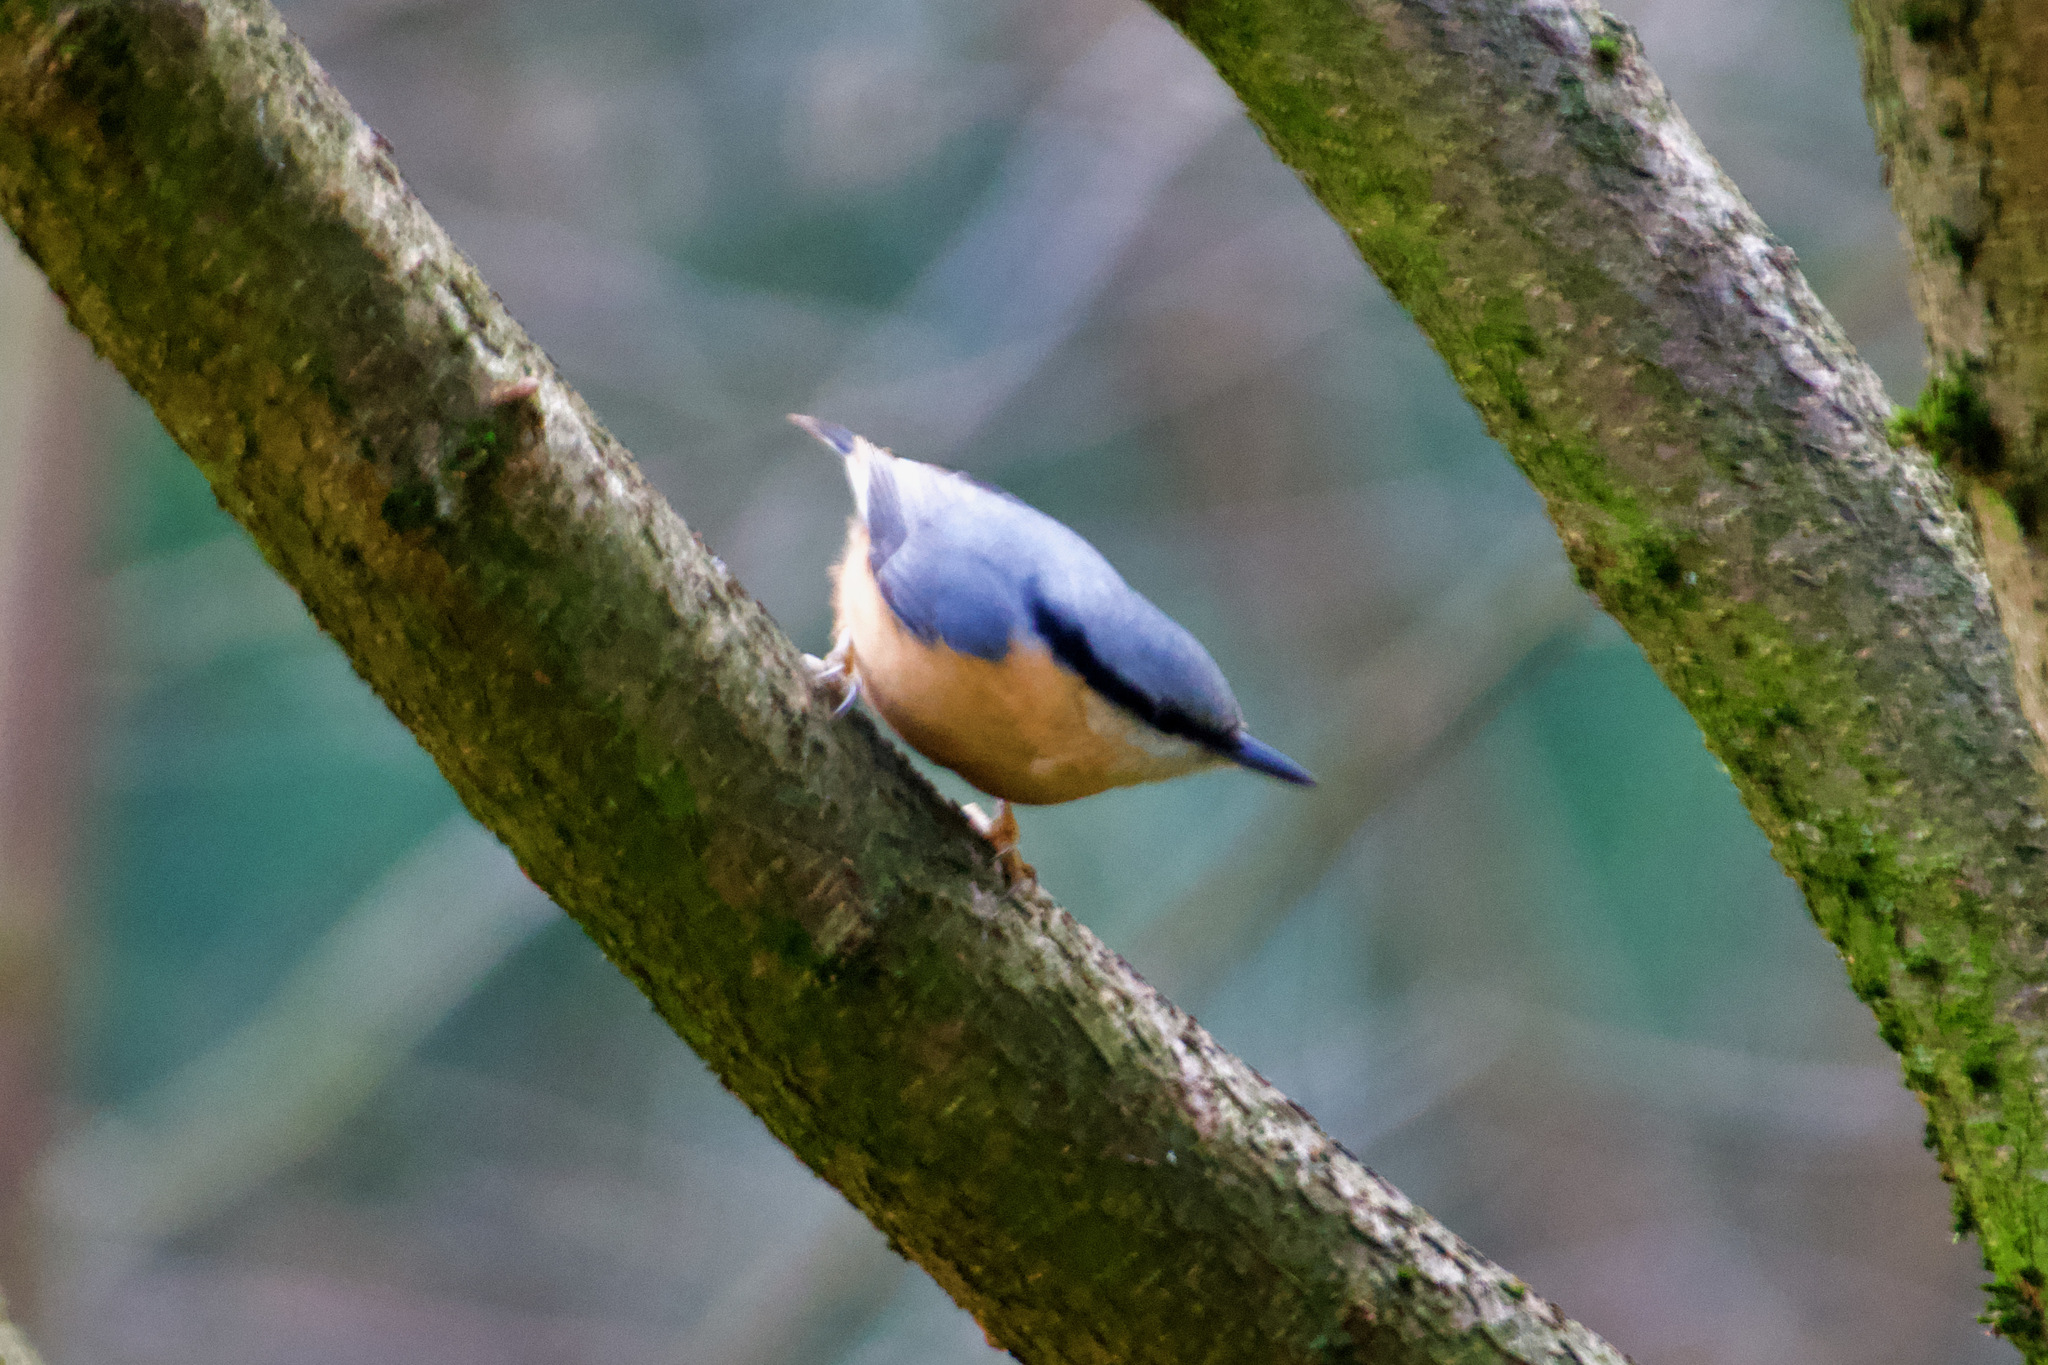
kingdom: Animalia
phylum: Chordata
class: Aves
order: Passeriformes
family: Sittidae
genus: Sitta
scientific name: Sitta europaea
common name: Eurasian nuthatch
